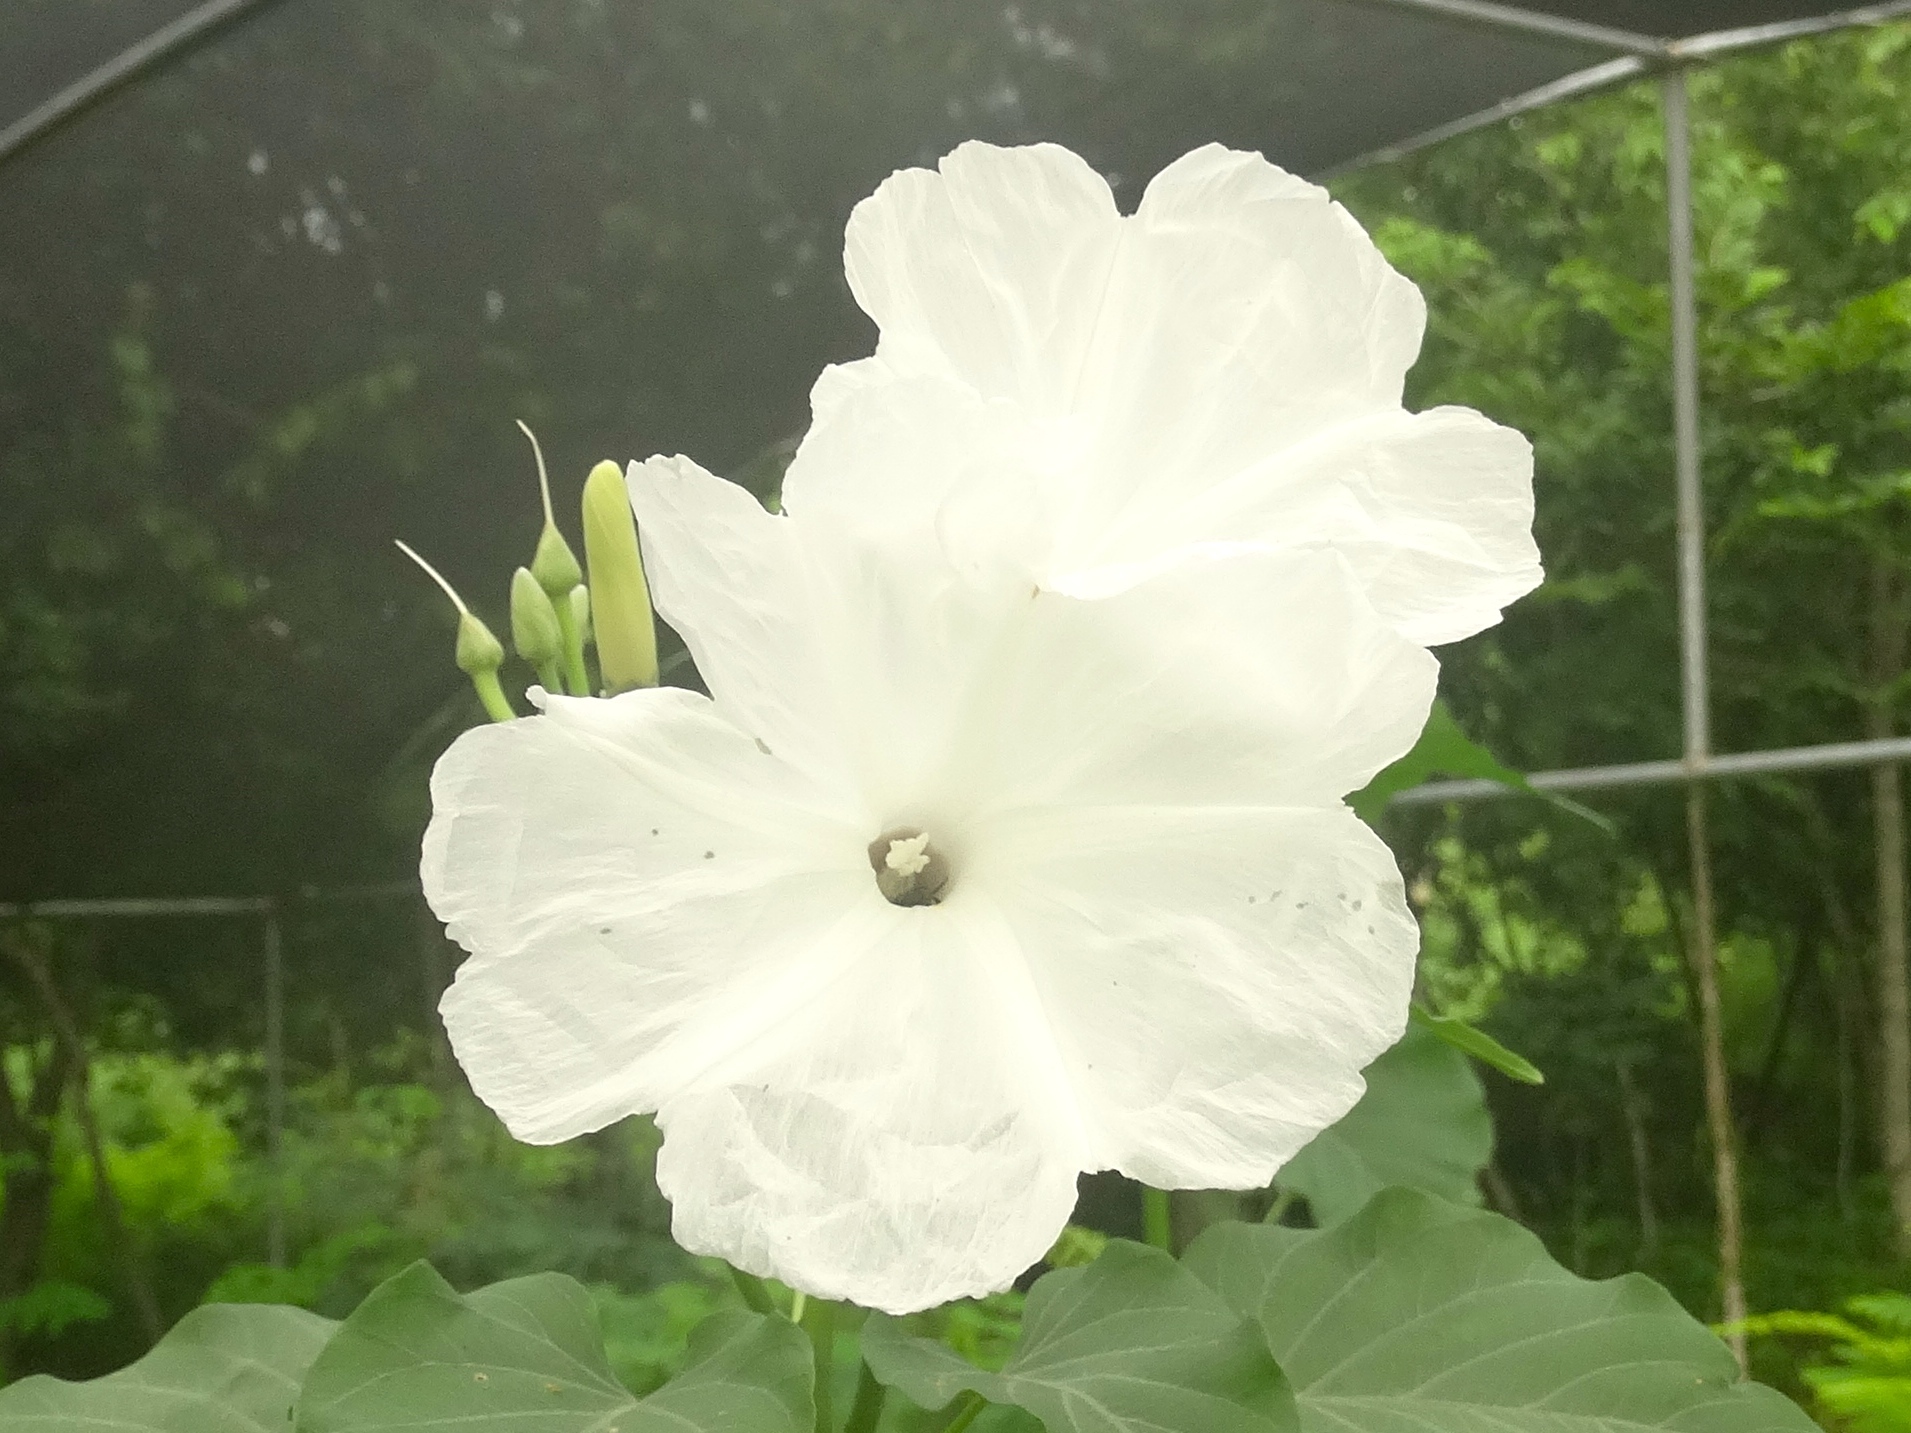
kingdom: Plantae
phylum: Tracheophyta
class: Magnoliopsida
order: Solanales
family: Convolvulaceae
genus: Ipomoea
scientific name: Ipomoea carnea
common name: Morning-glory
